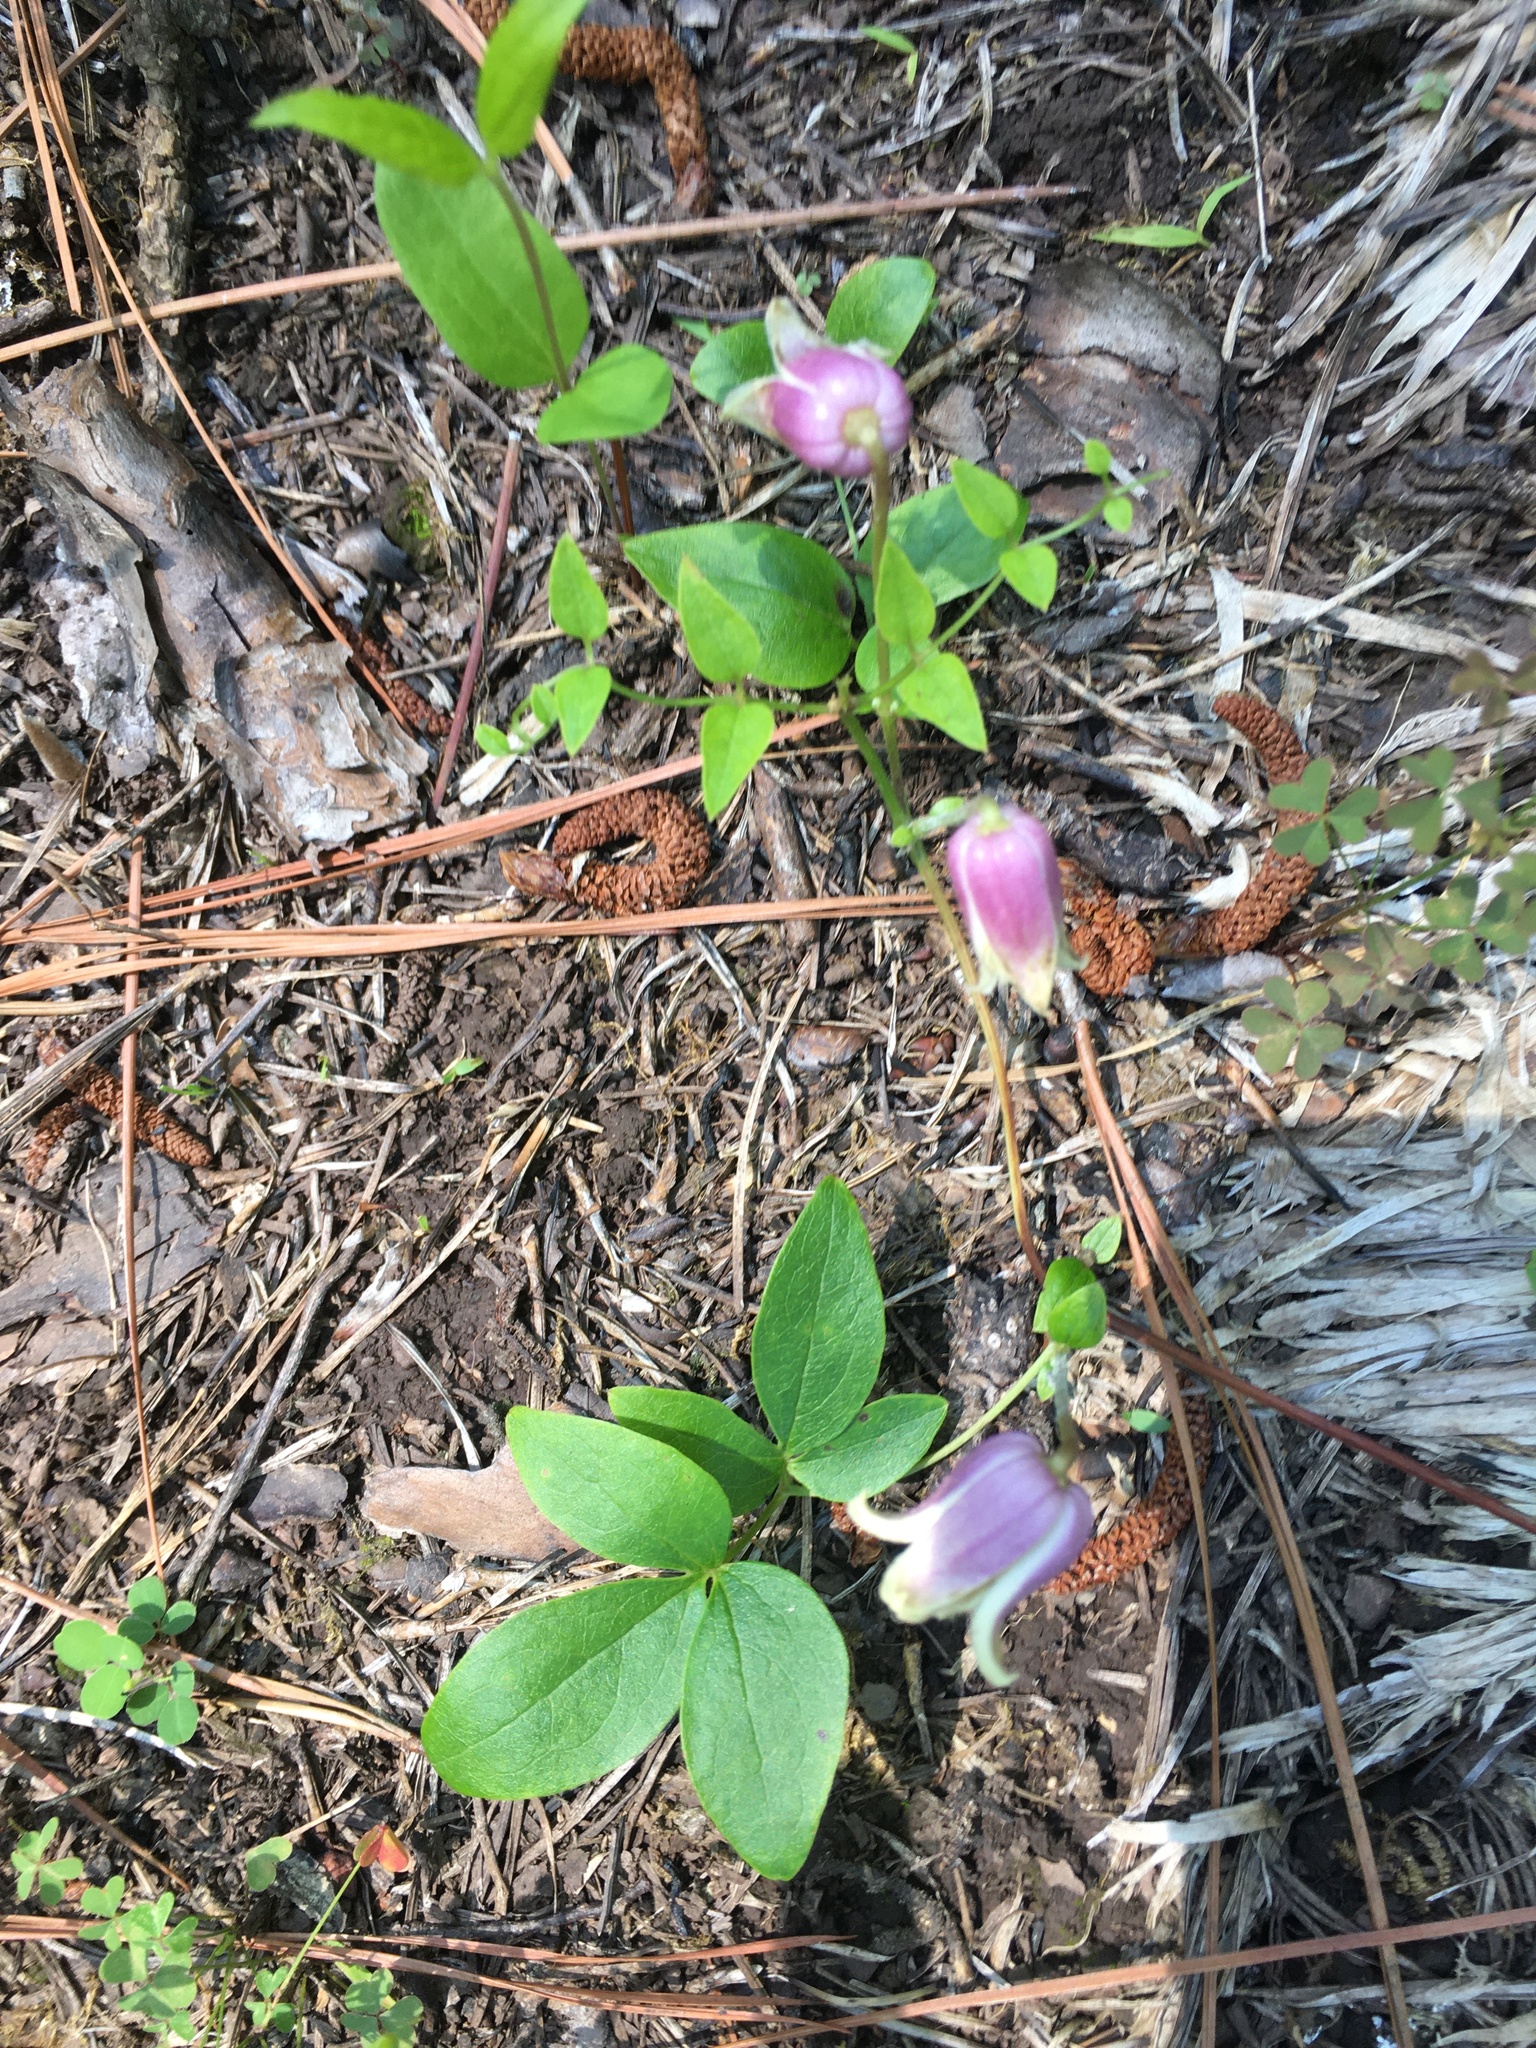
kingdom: Plantae
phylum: Tracheophyta
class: Magnoliopsida
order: Ranunculales
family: Ranunculaceae
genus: Clematis
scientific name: Clematis viorna
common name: Leather-flower
